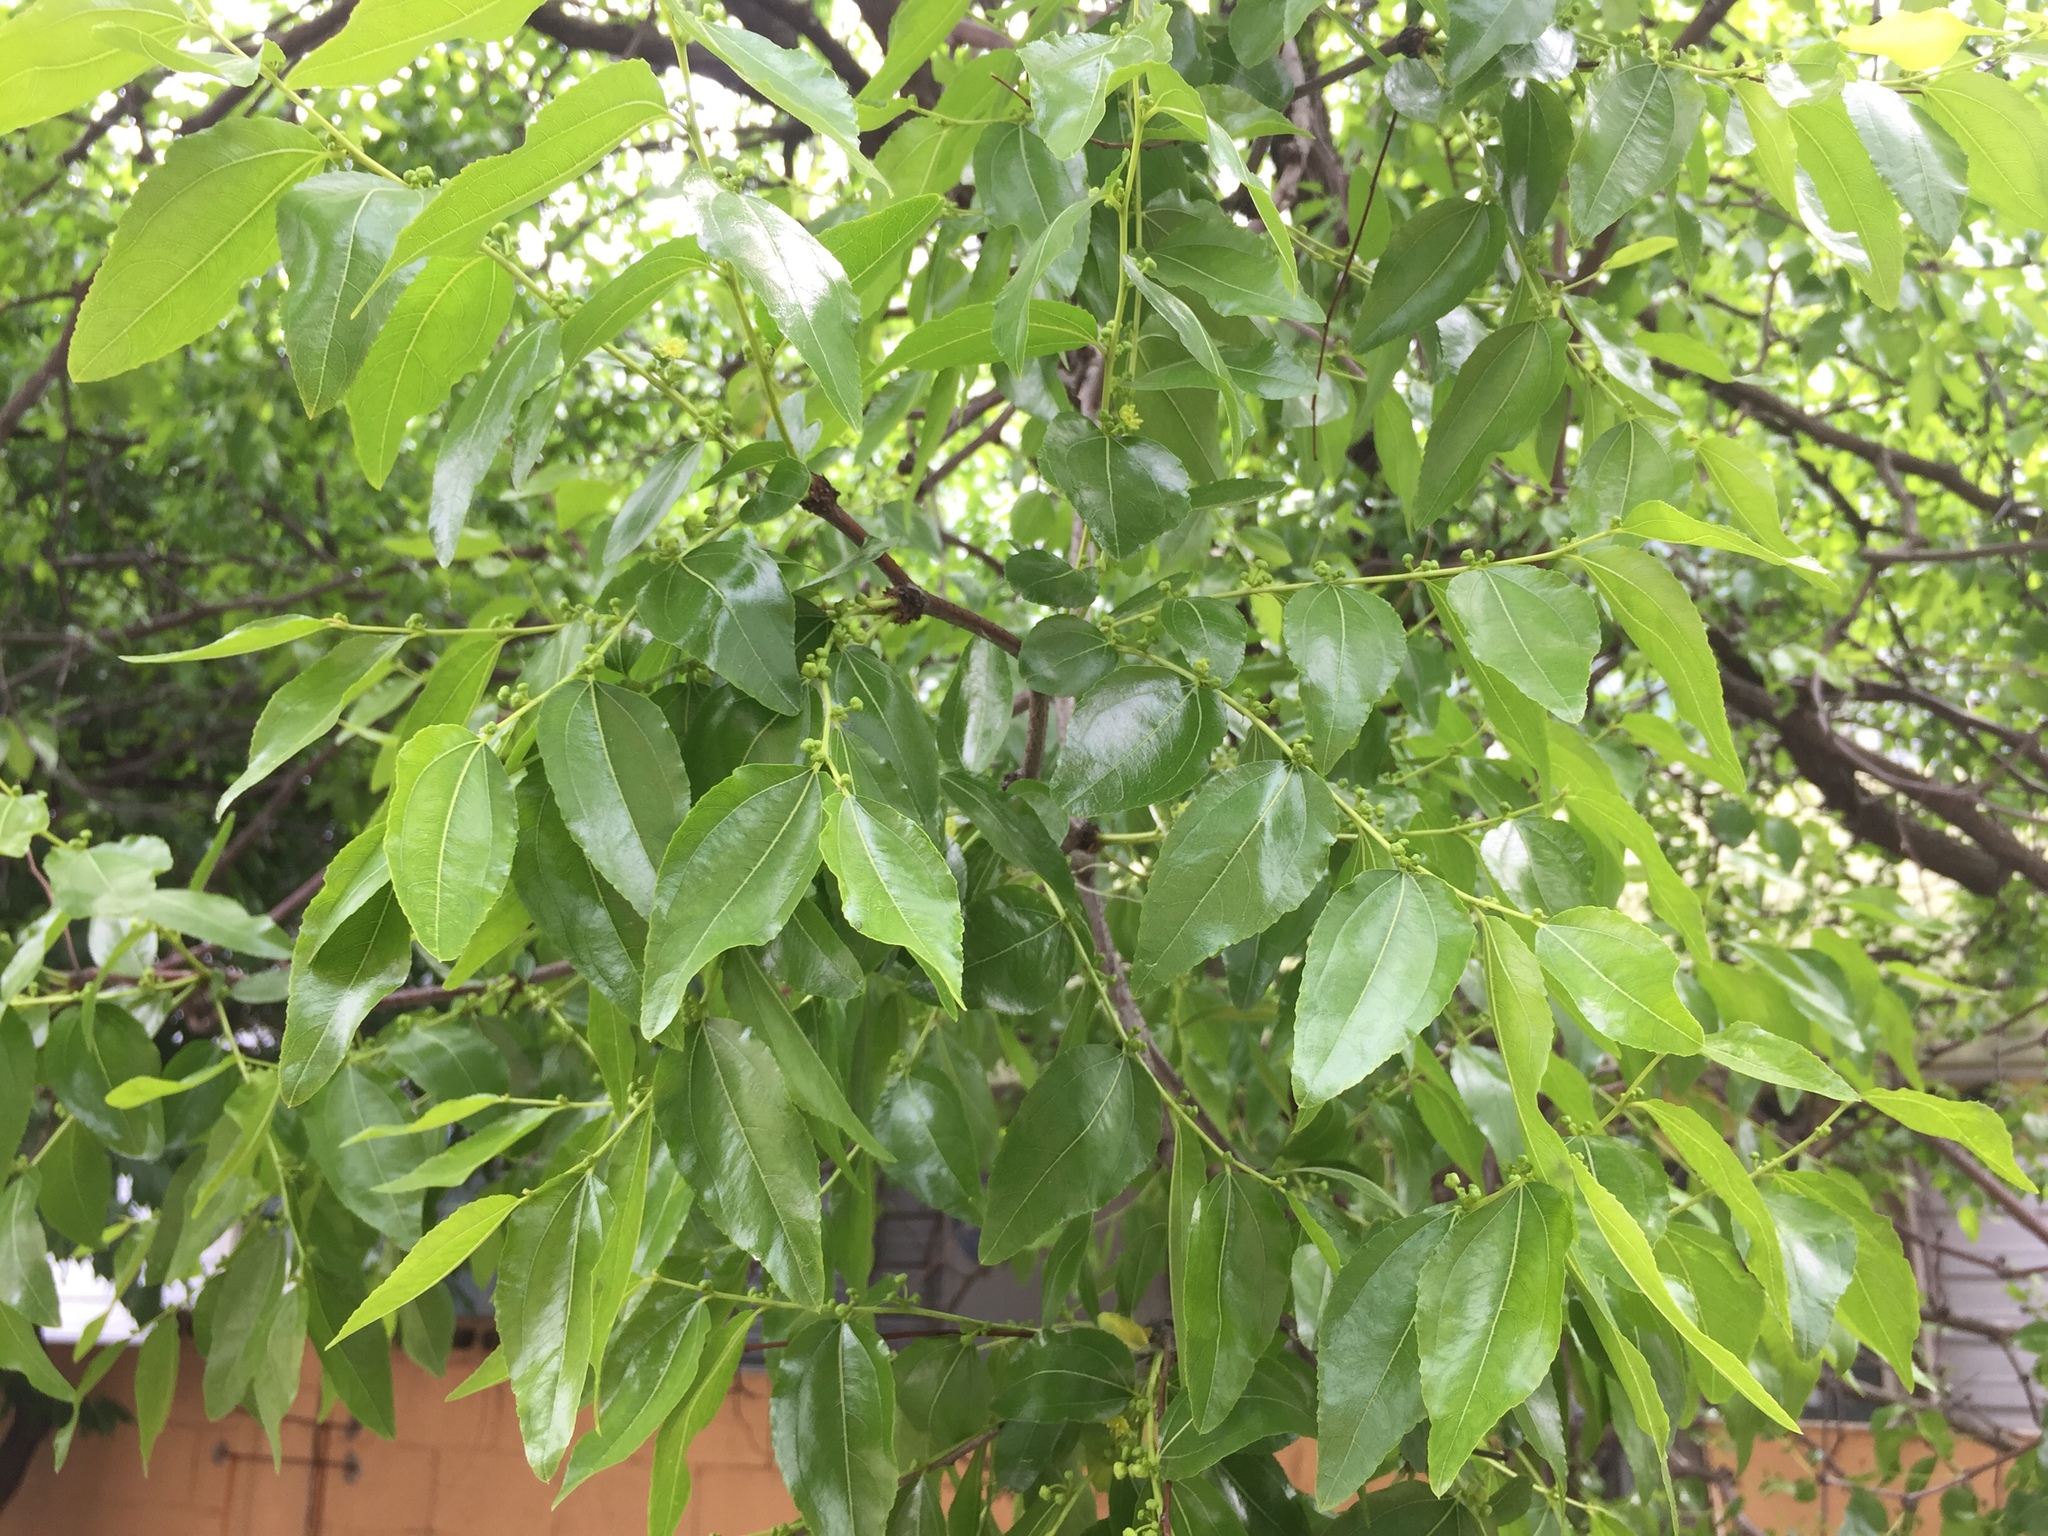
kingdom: Plantae
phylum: Tracheophyta
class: Magnoliopsida
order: Rosales
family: Rhamnaceae
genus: Ziziphus
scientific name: Ziziphus jujuba
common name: Jujube red date
